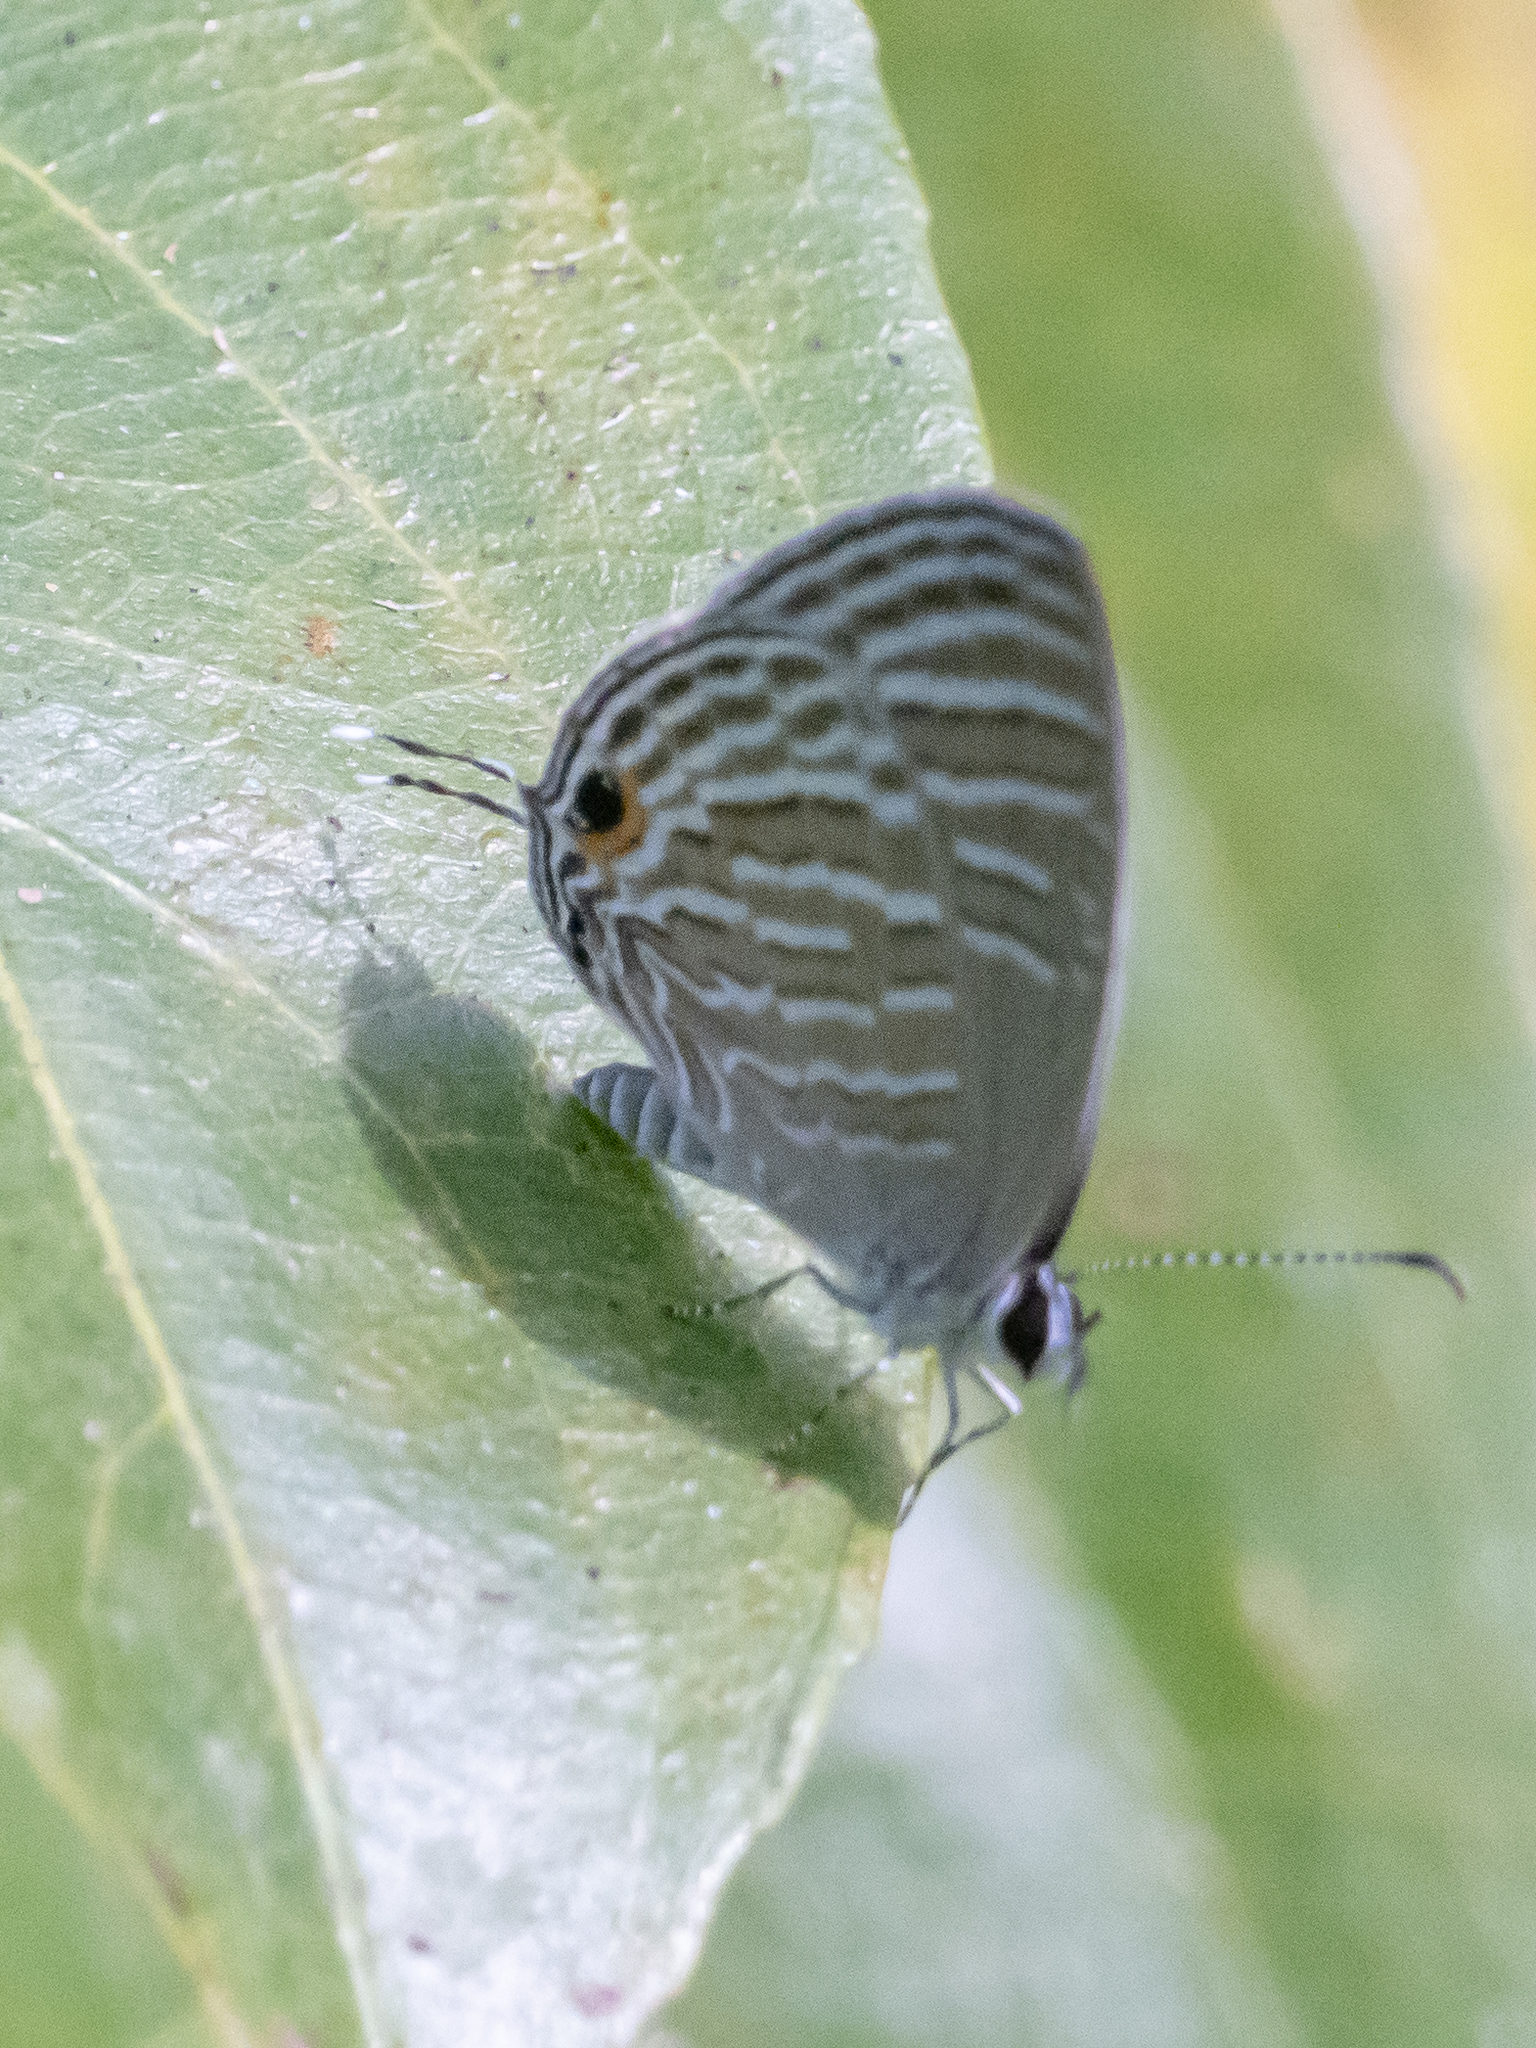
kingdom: Animalia
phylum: Arthropoda
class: Insecta
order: Lepidoptera
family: Lycaenidae
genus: Jamides
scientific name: Jamides celeno
